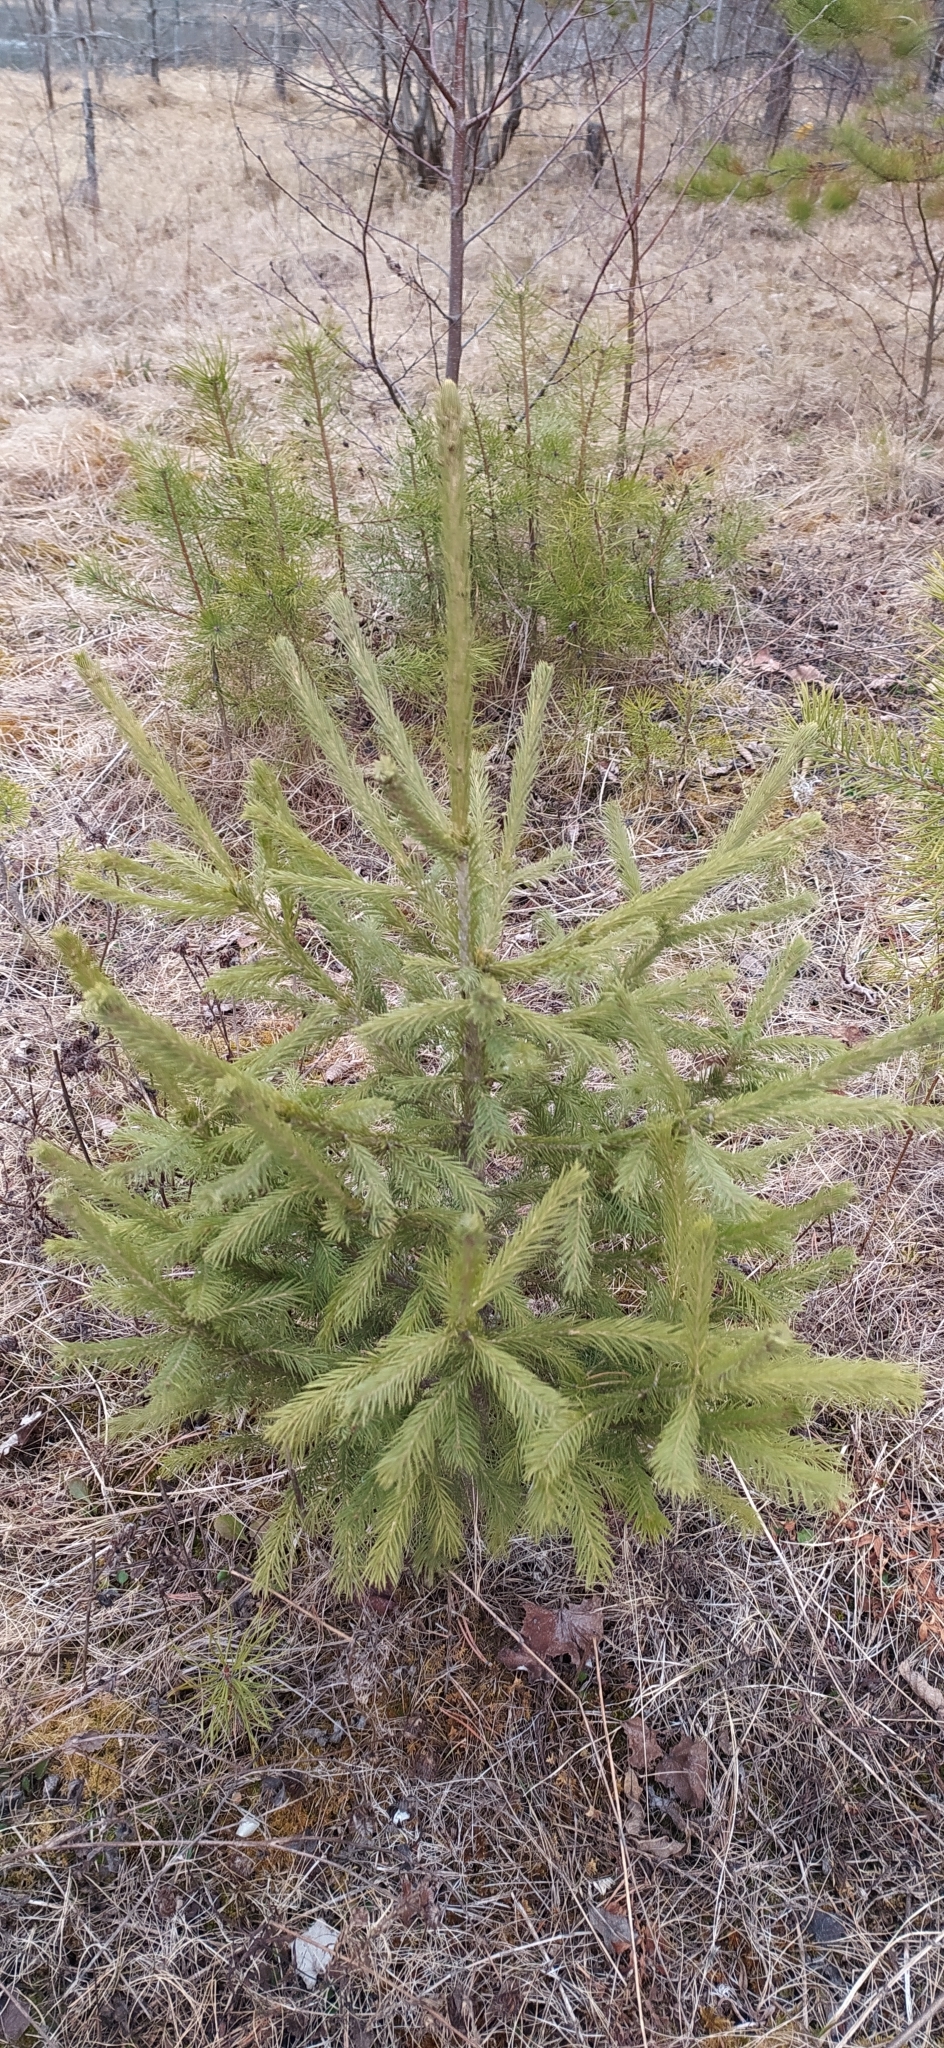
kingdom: Plantae
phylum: Tracheophyta
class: Pinopsida
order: Pinales
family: Pinaceae
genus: Picea
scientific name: Picea obovata
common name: Siberian spruce
